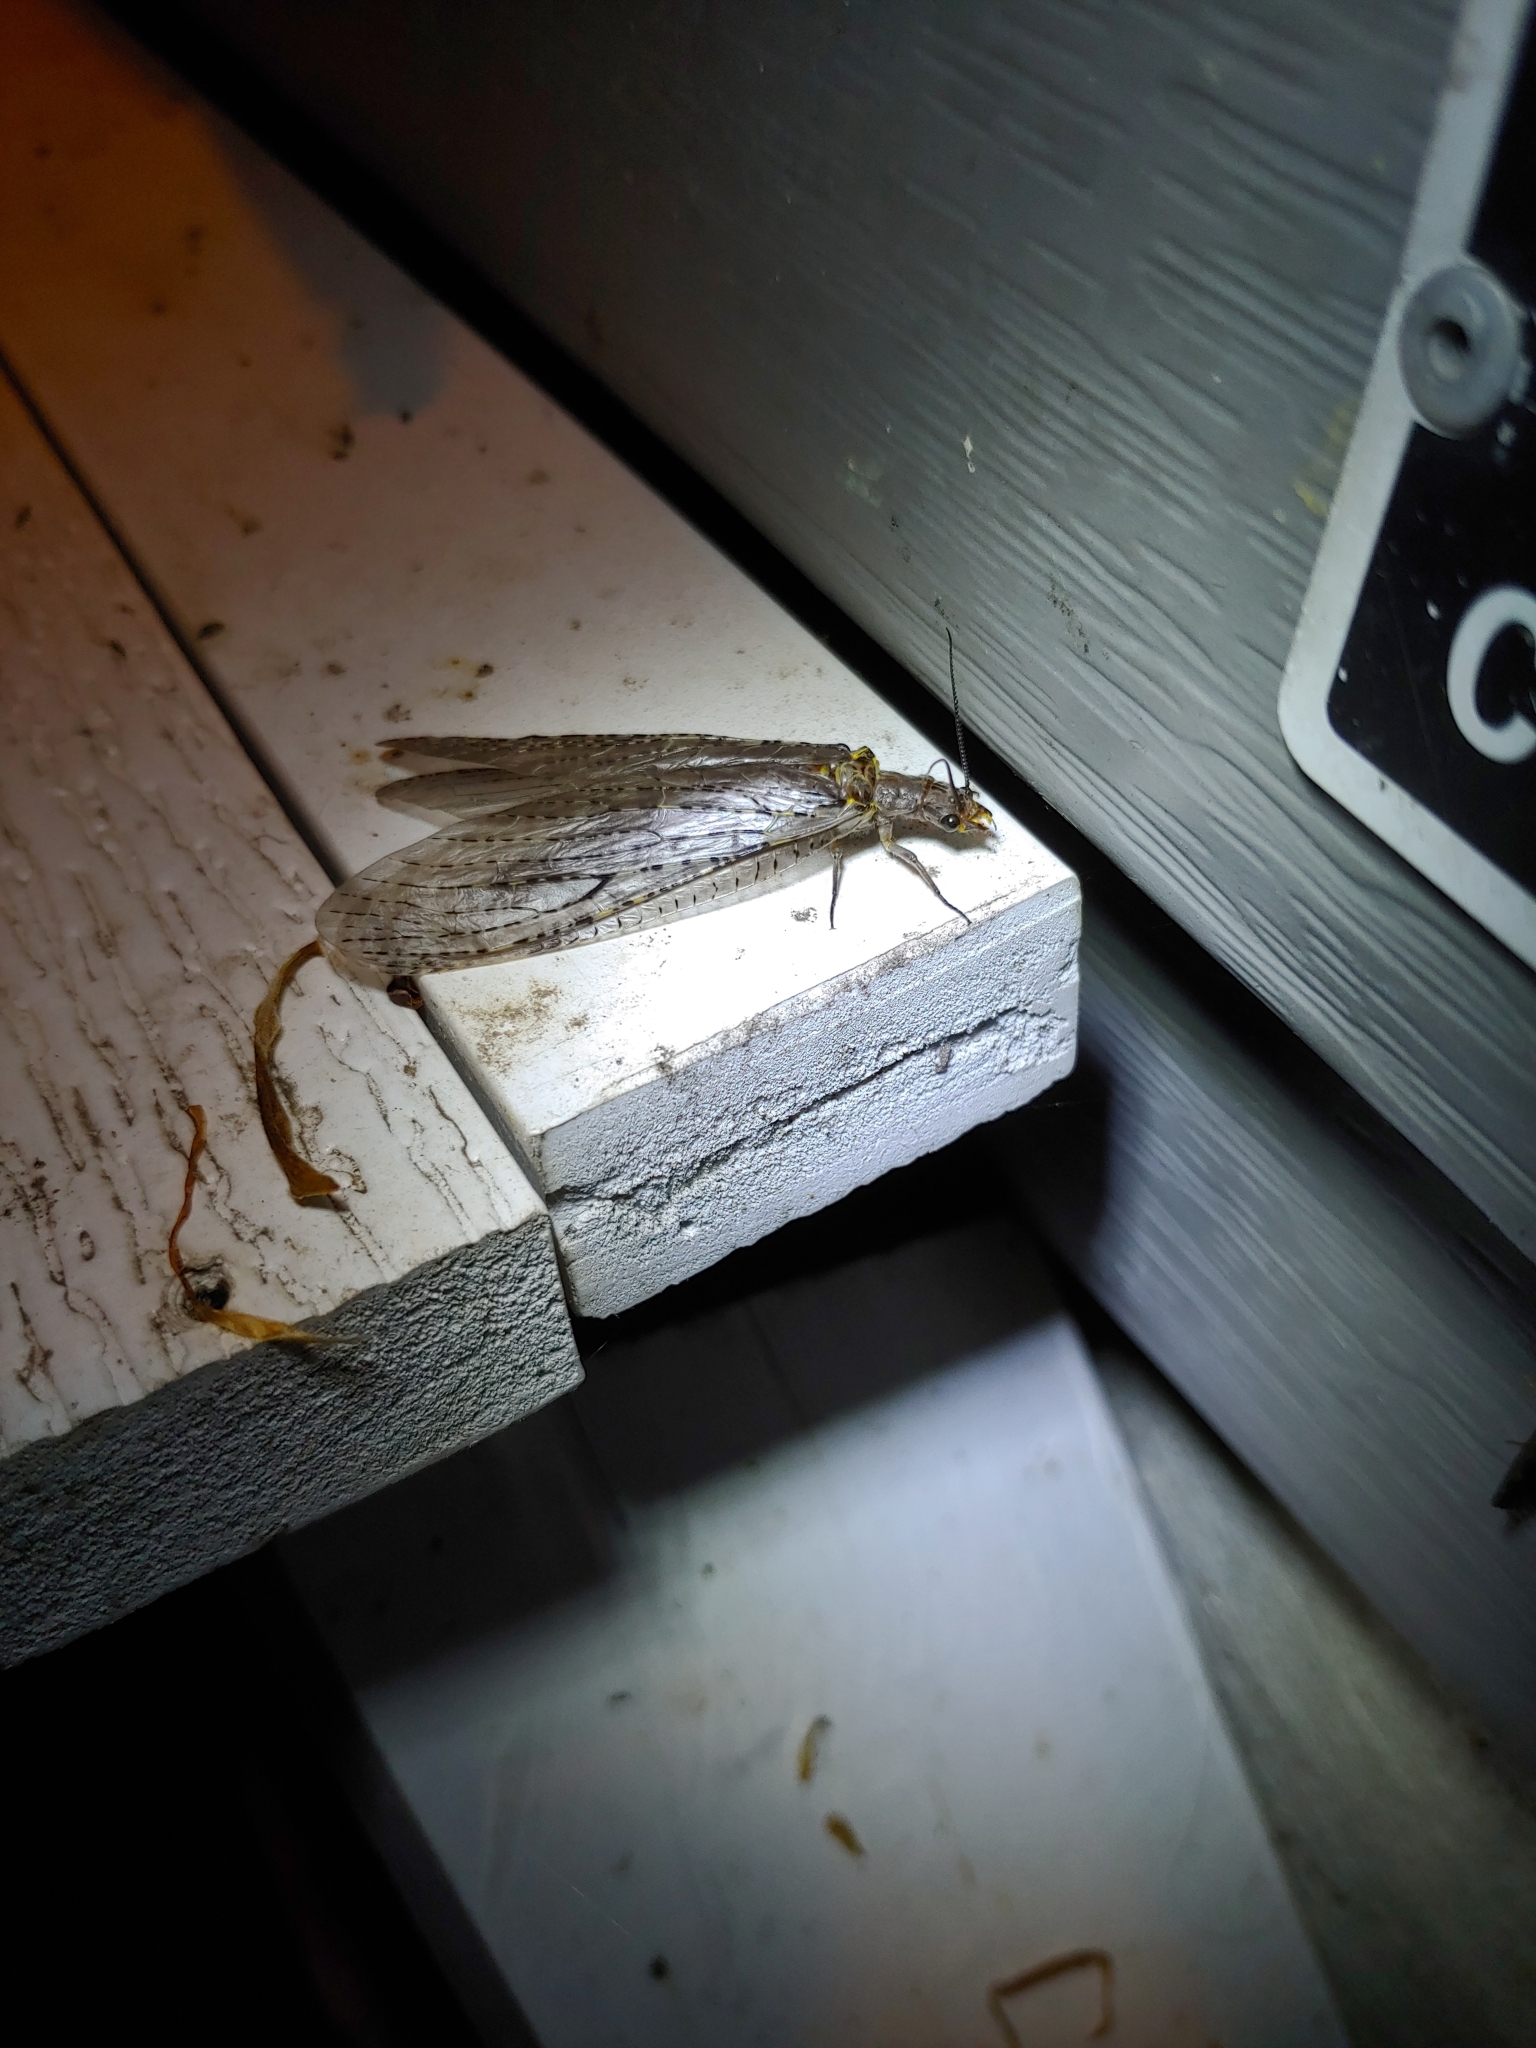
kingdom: Animalia
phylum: Arthropoda
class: Insecta
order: Megaloptera
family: Corydalidae
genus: Chauliodes
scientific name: Chauliodes rastricornis
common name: Spring fishfly
